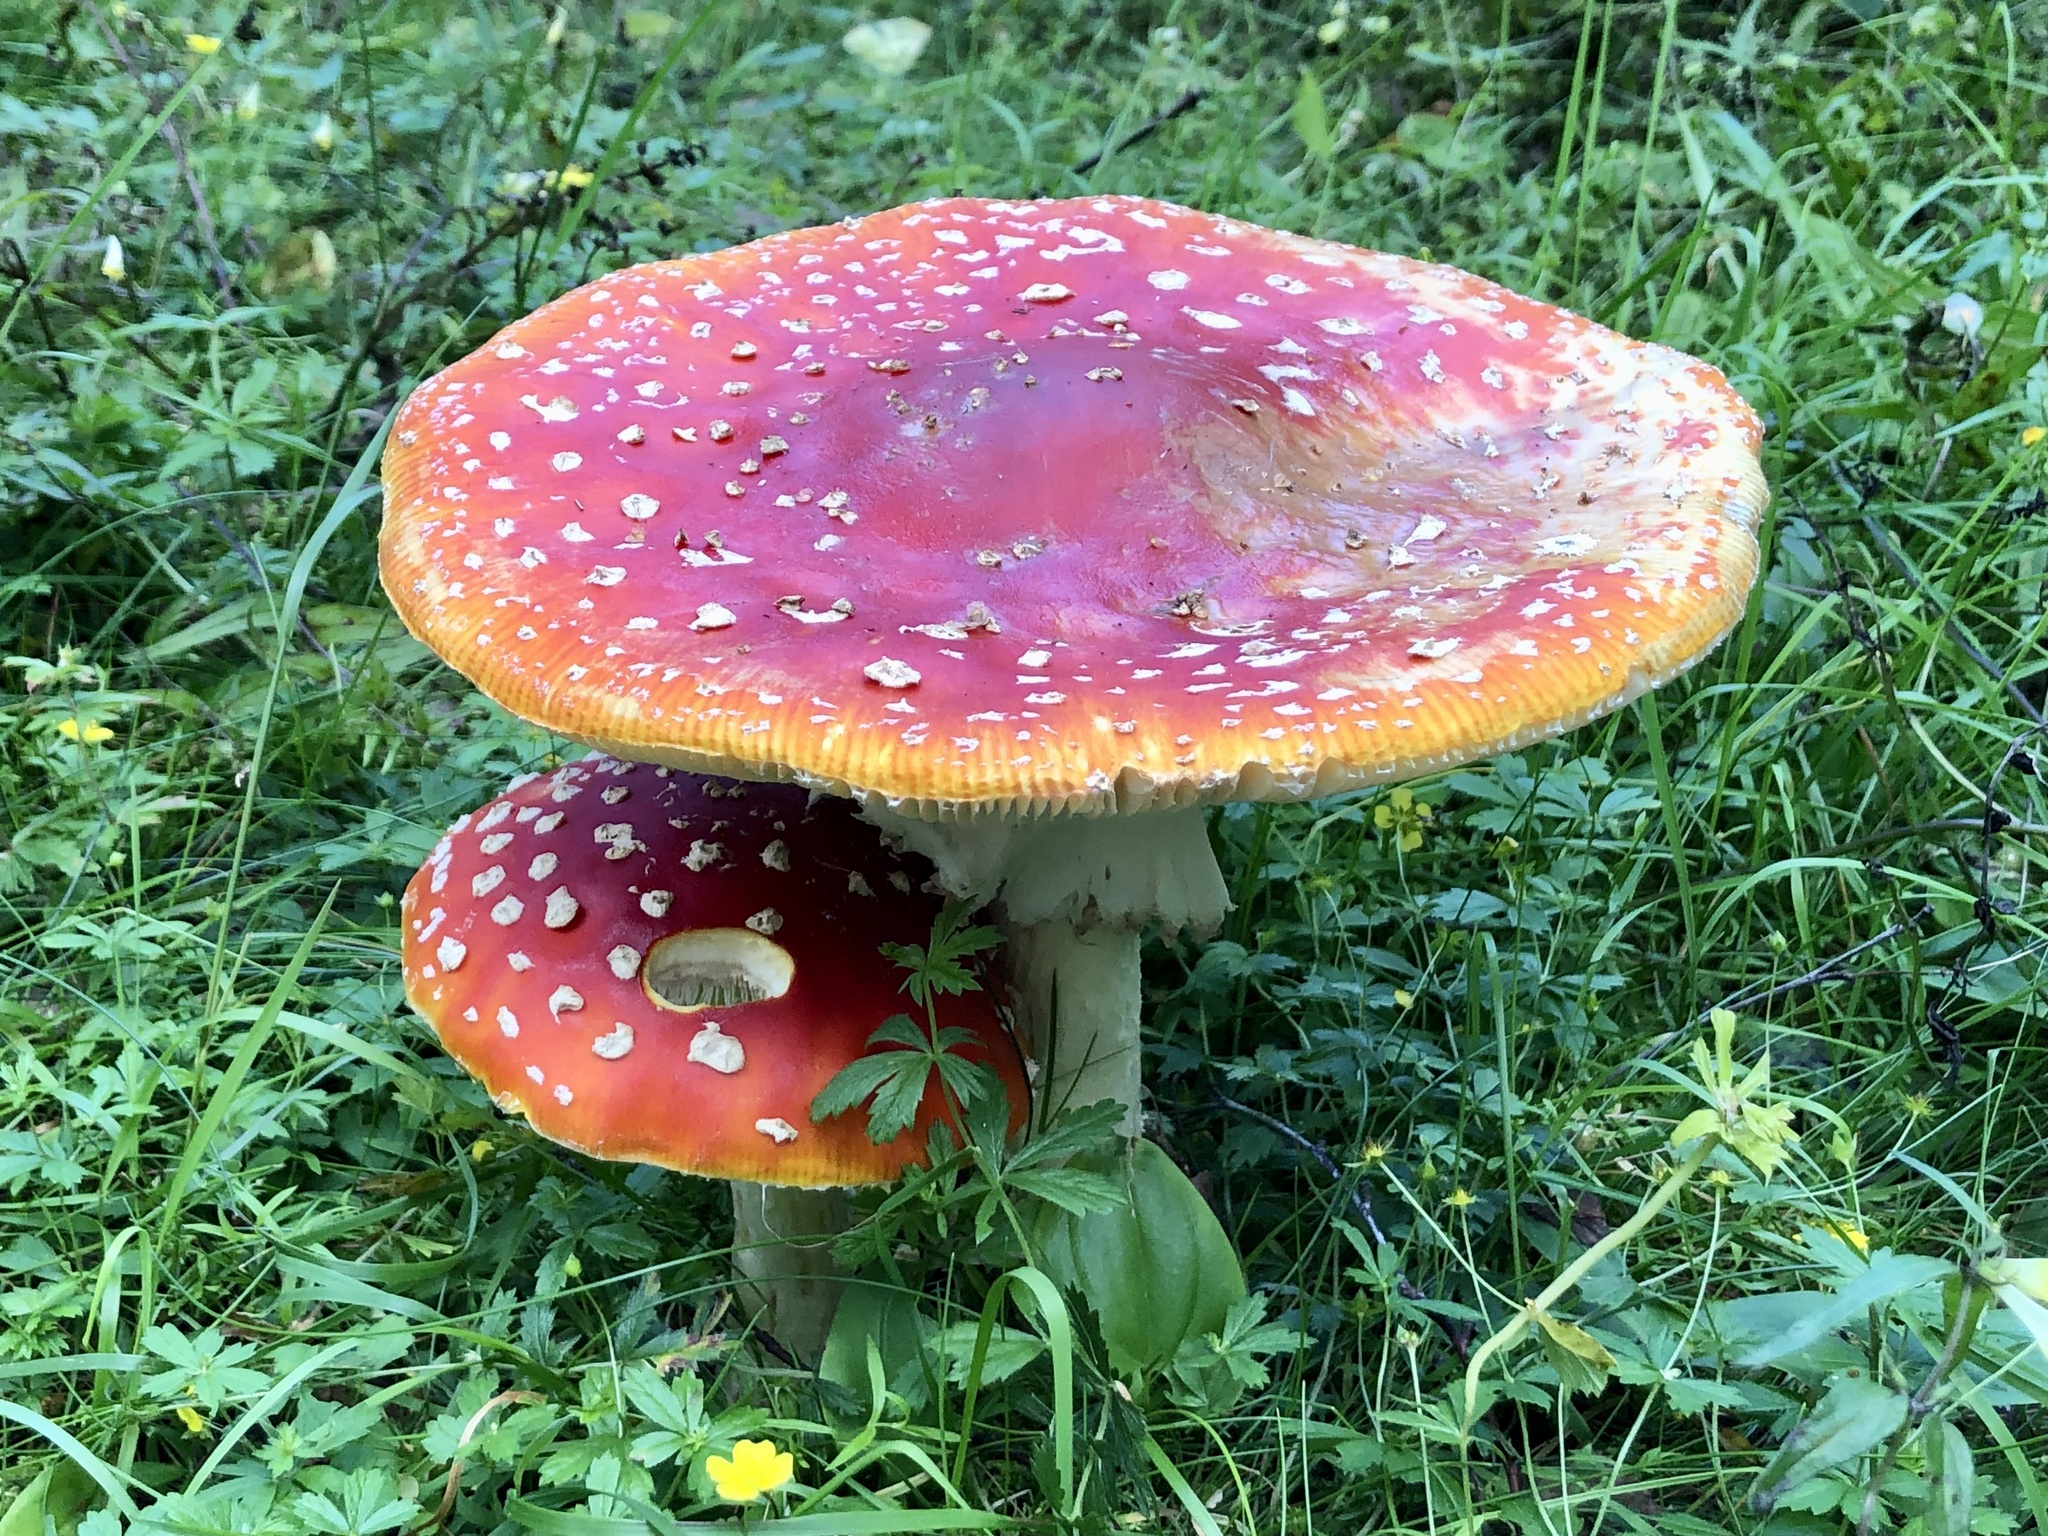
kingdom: Fungi
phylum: Basidiomycota
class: Agaricomycetes
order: Agaricales
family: Amanitaceae
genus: Amanita
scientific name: Amanita muscaria
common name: Fly agaric
